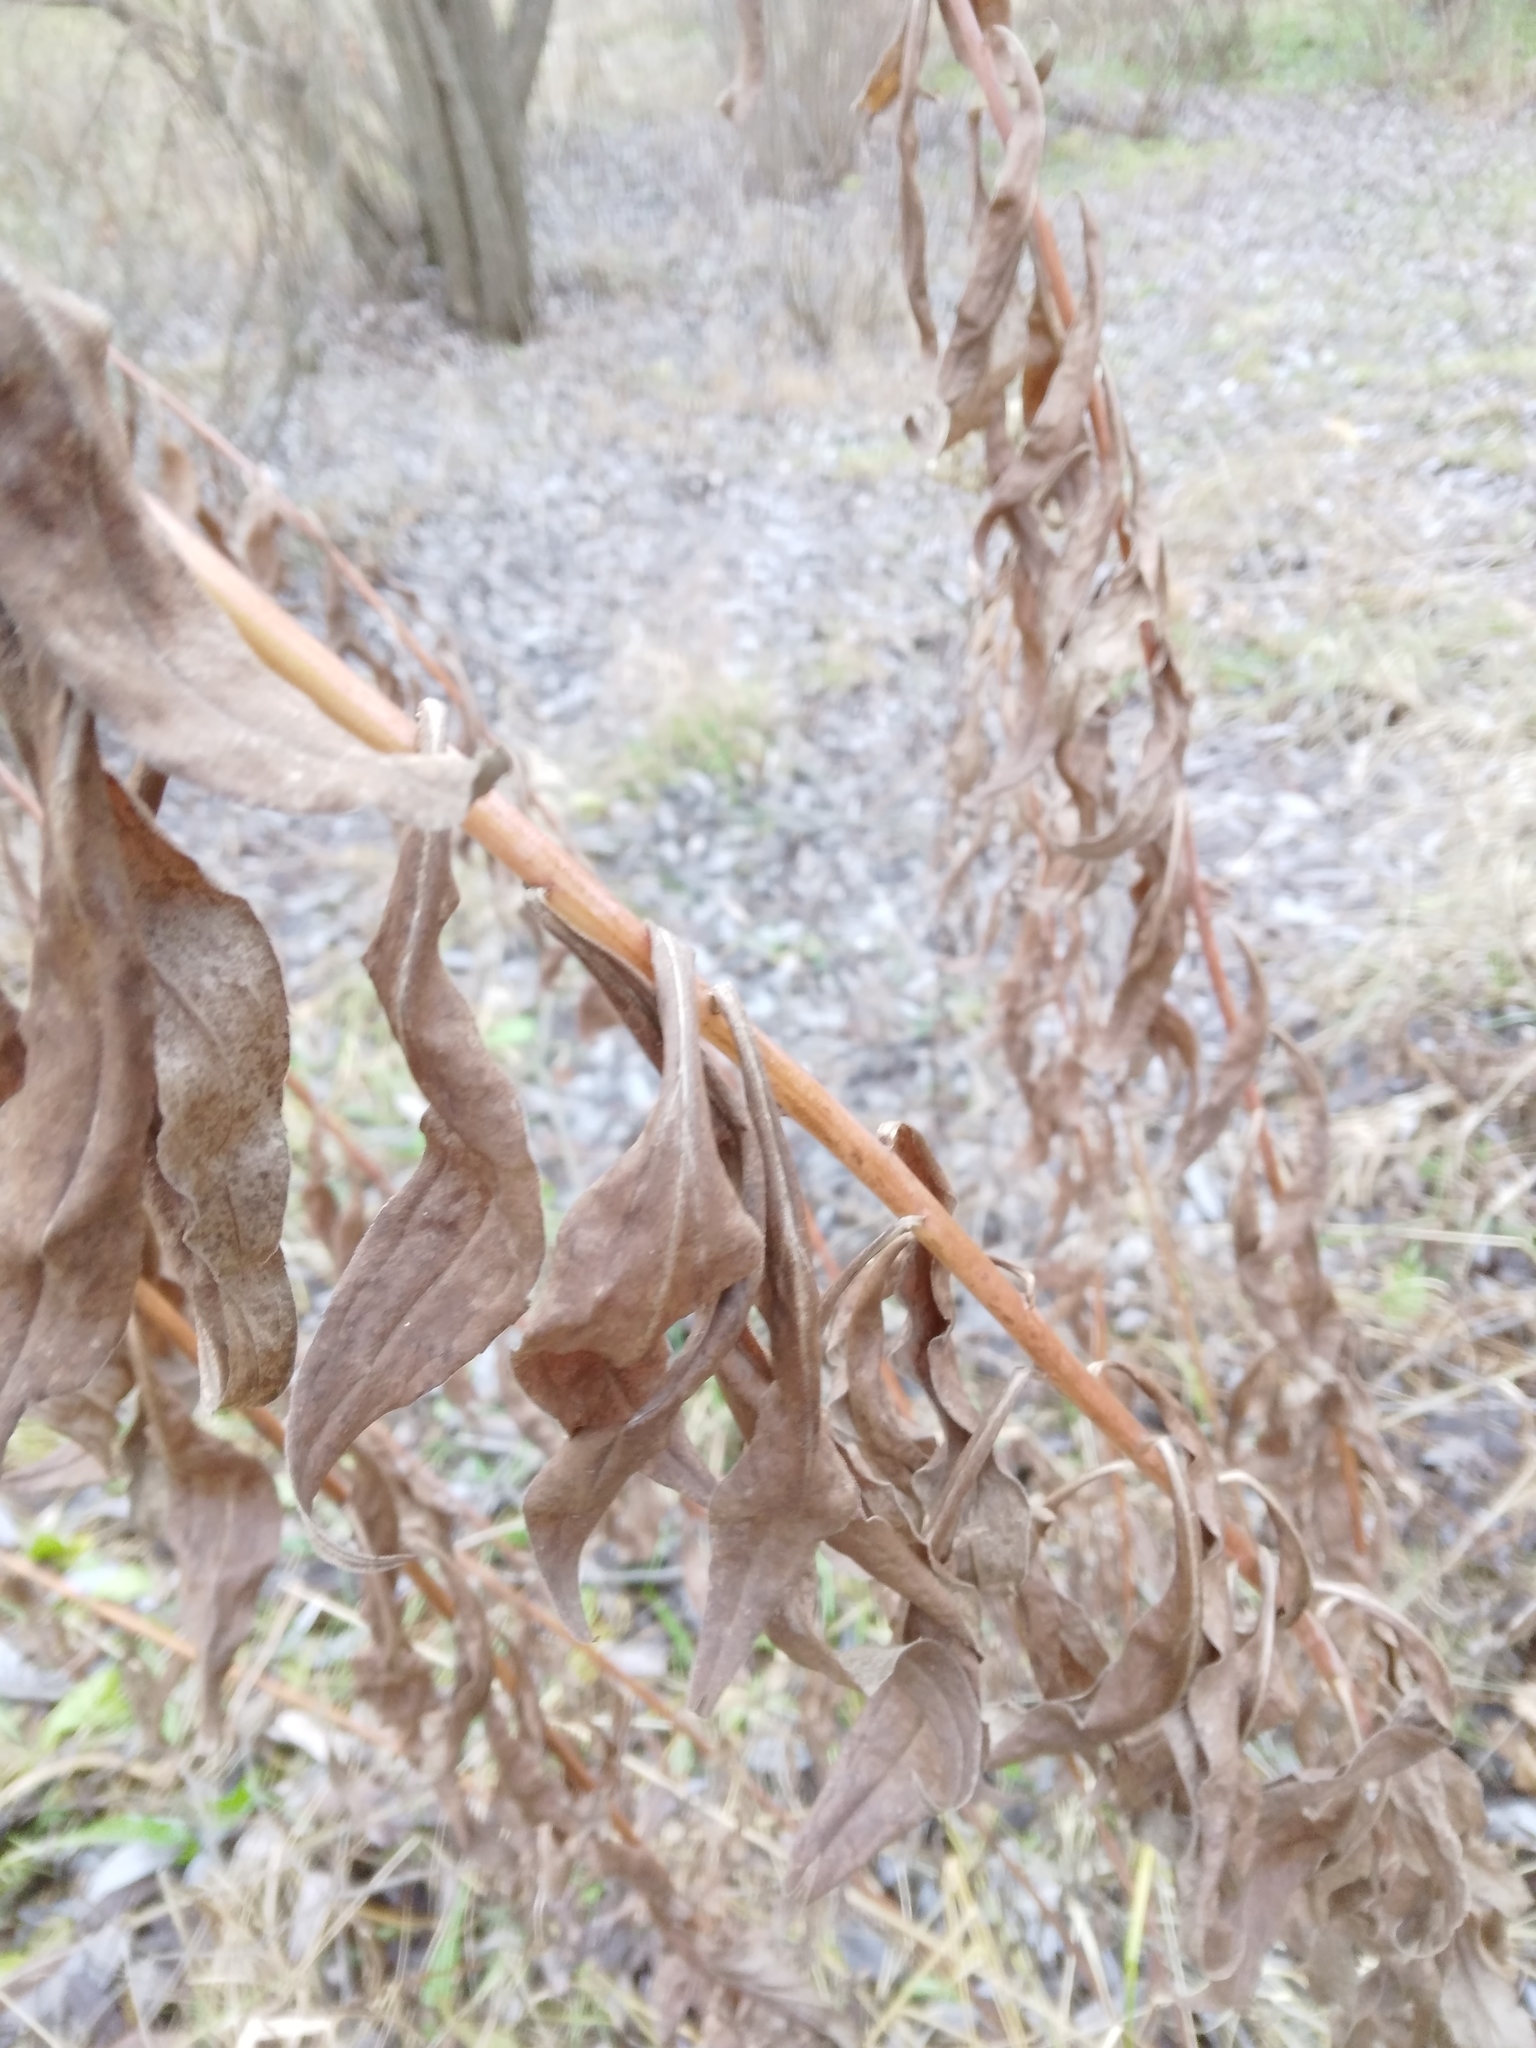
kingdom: Plantae
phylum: Tracheophyta
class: Magnoliopsida
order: Asterales
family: Asteraceae
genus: Solidago
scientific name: Solidago canadensis
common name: Canada goldenrod
